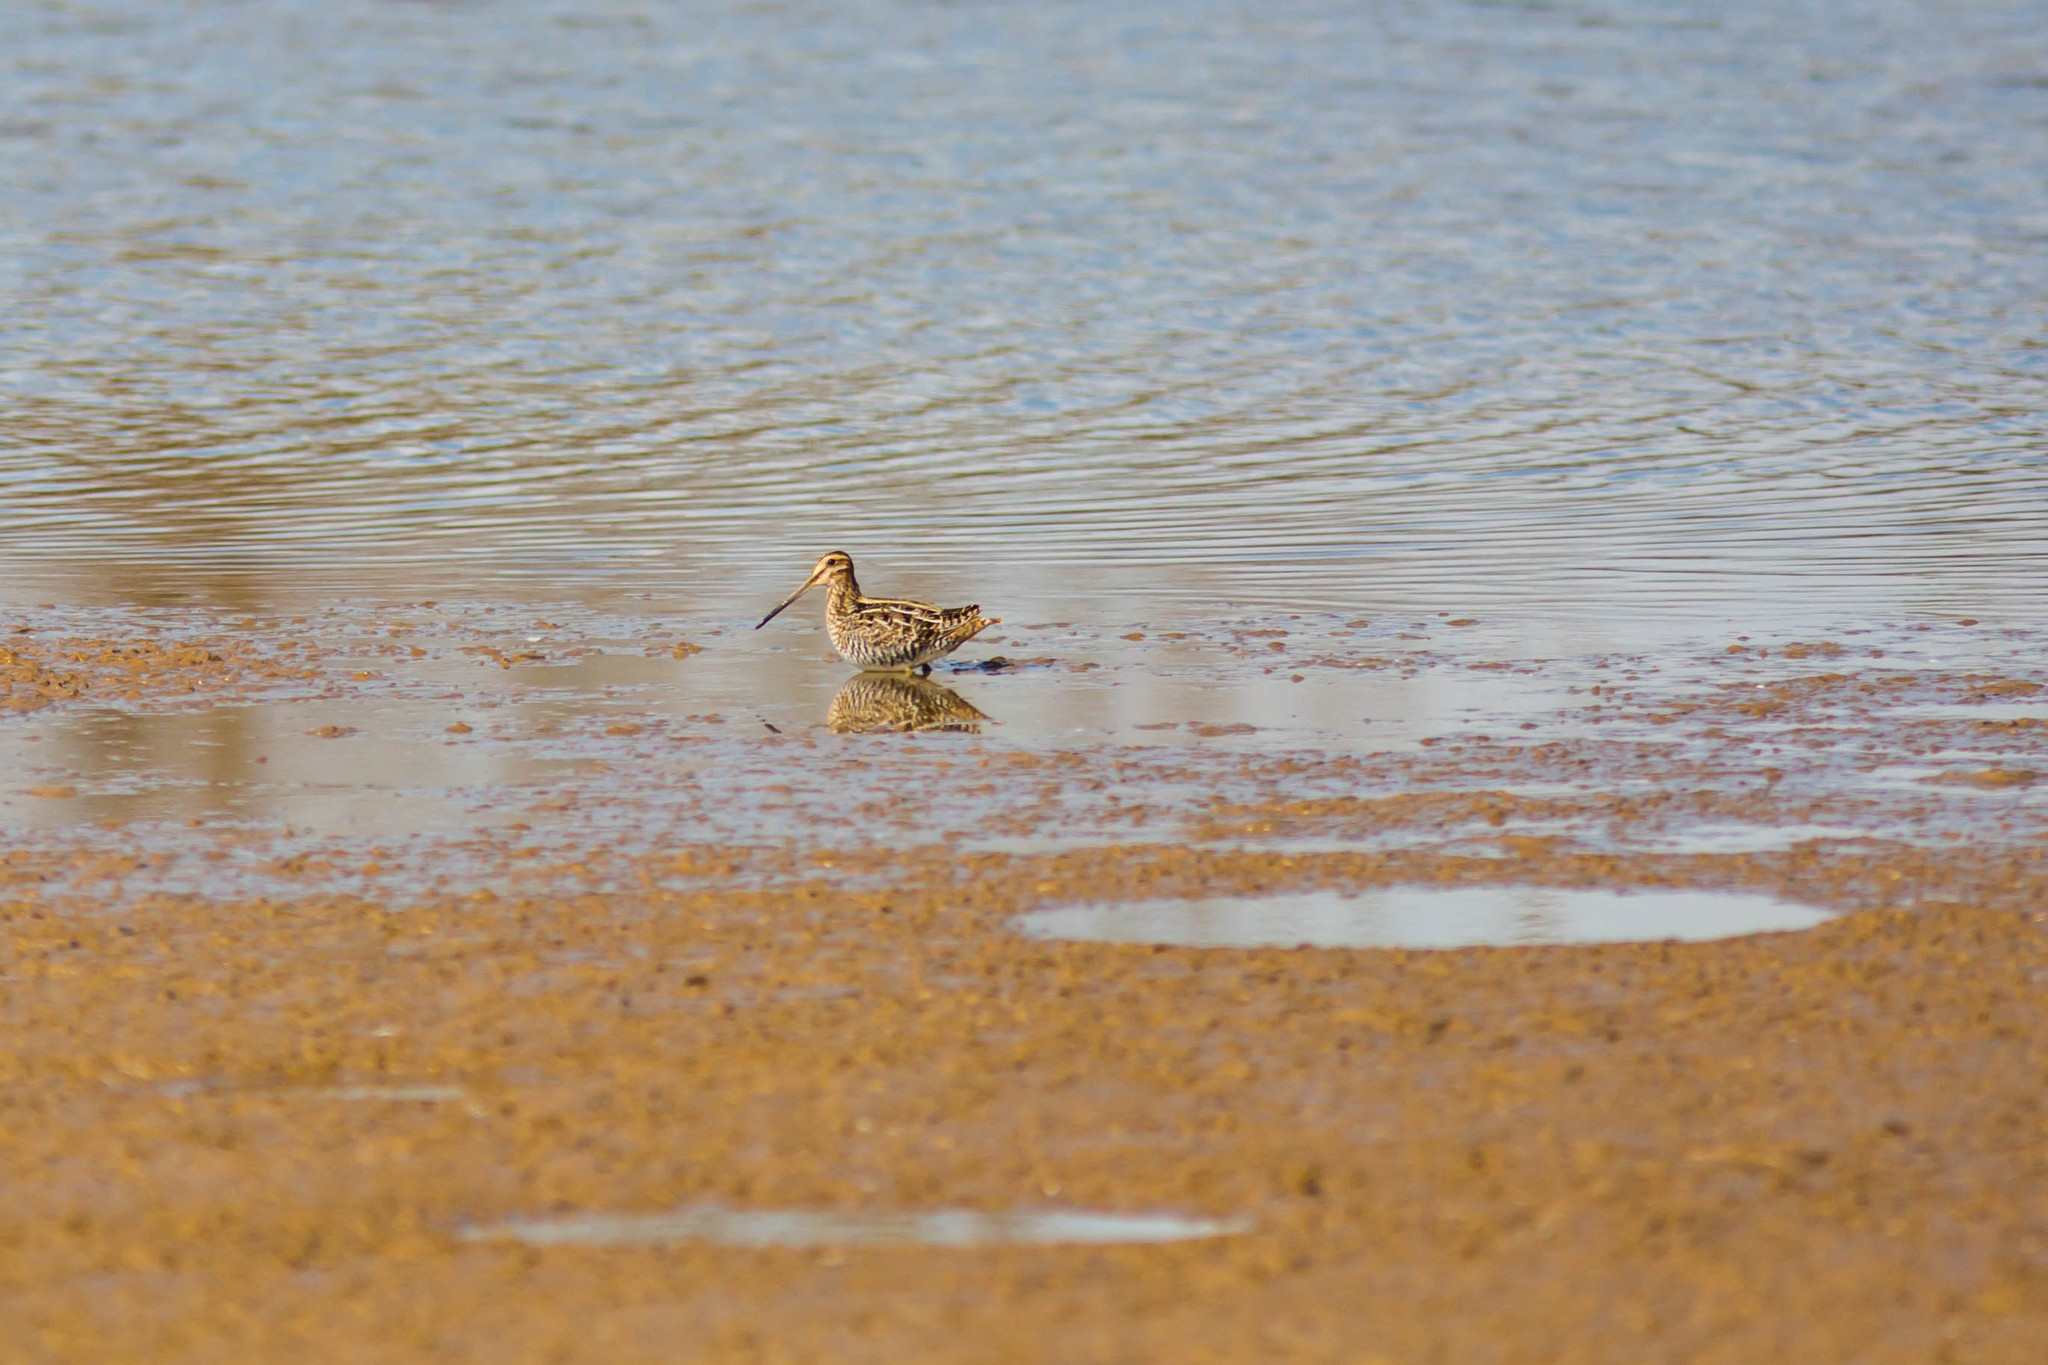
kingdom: Animalia
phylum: Chordata
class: Aves
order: Charadriiformes
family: Scolopacidae
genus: Gallinago
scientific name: Gallinago delicata
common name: Wilson's snipe
